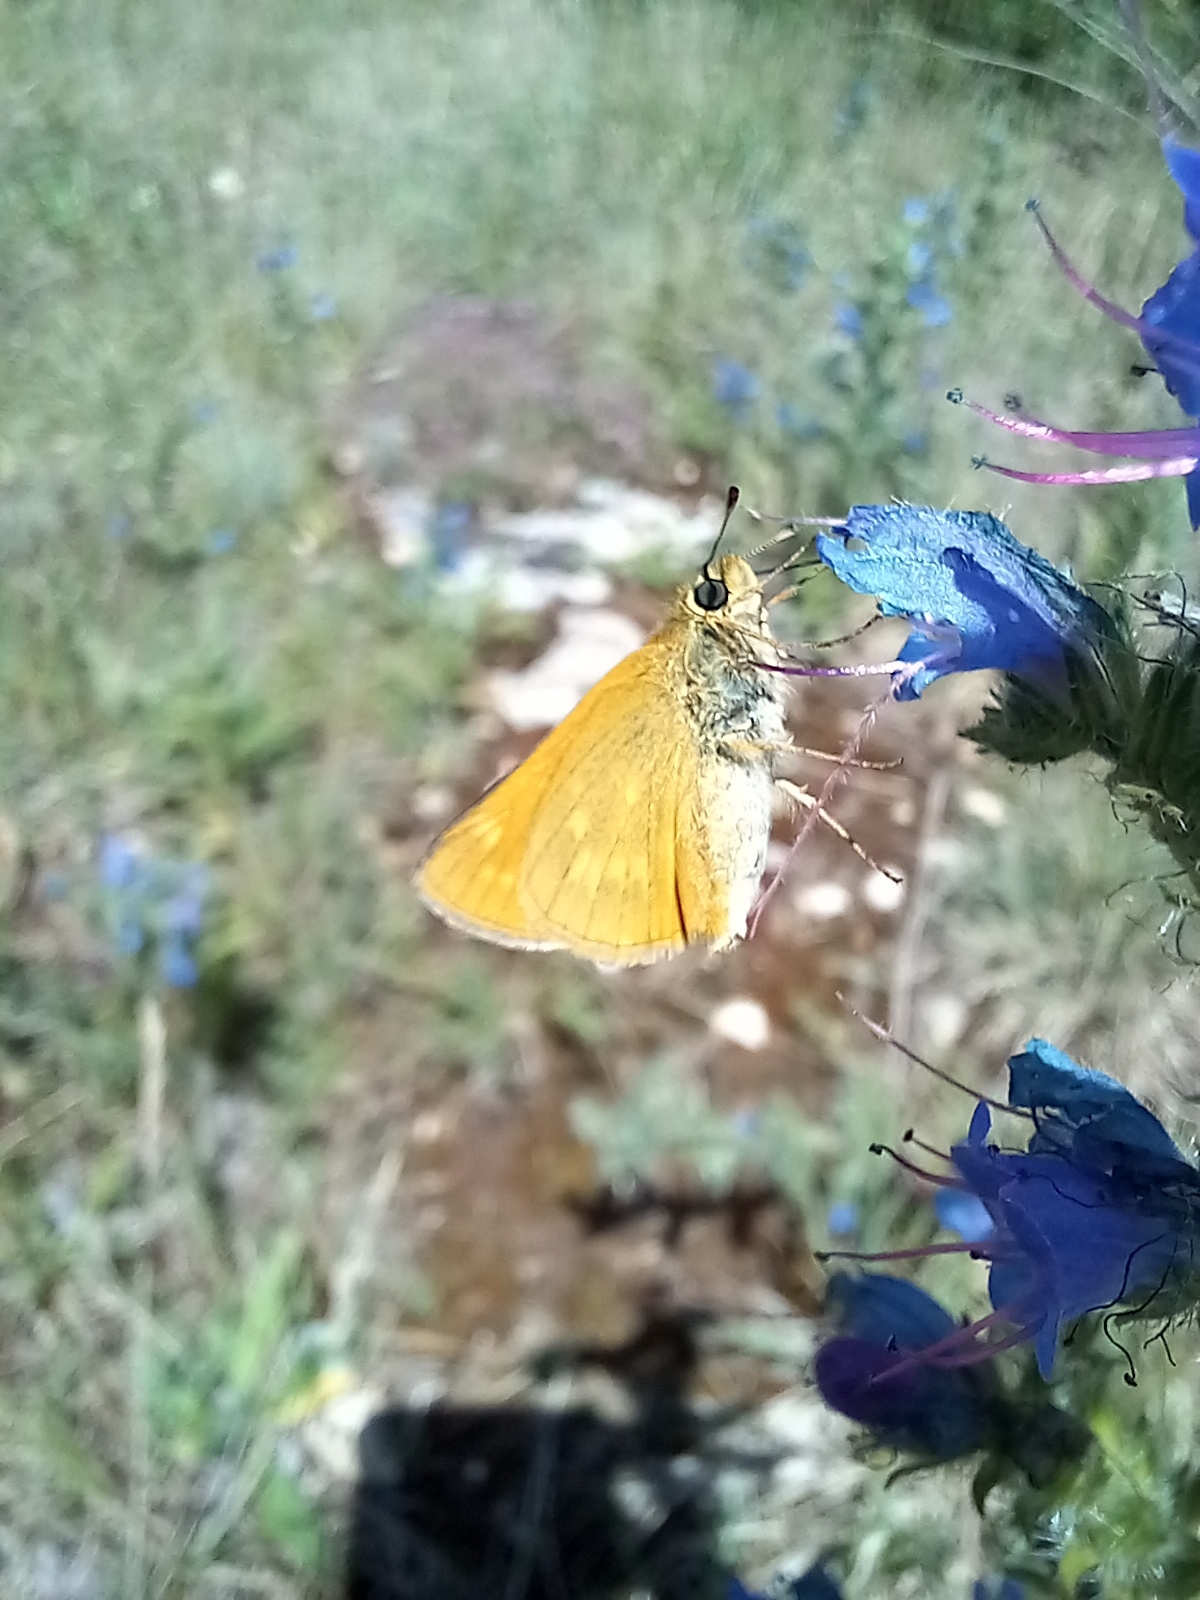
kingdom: Animalia
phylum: Arthropoda
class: Insecta
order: Lepidoptera
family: Hesperiidae
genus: Ochlodes
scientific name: Ochlodes venata
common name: Large skipper
